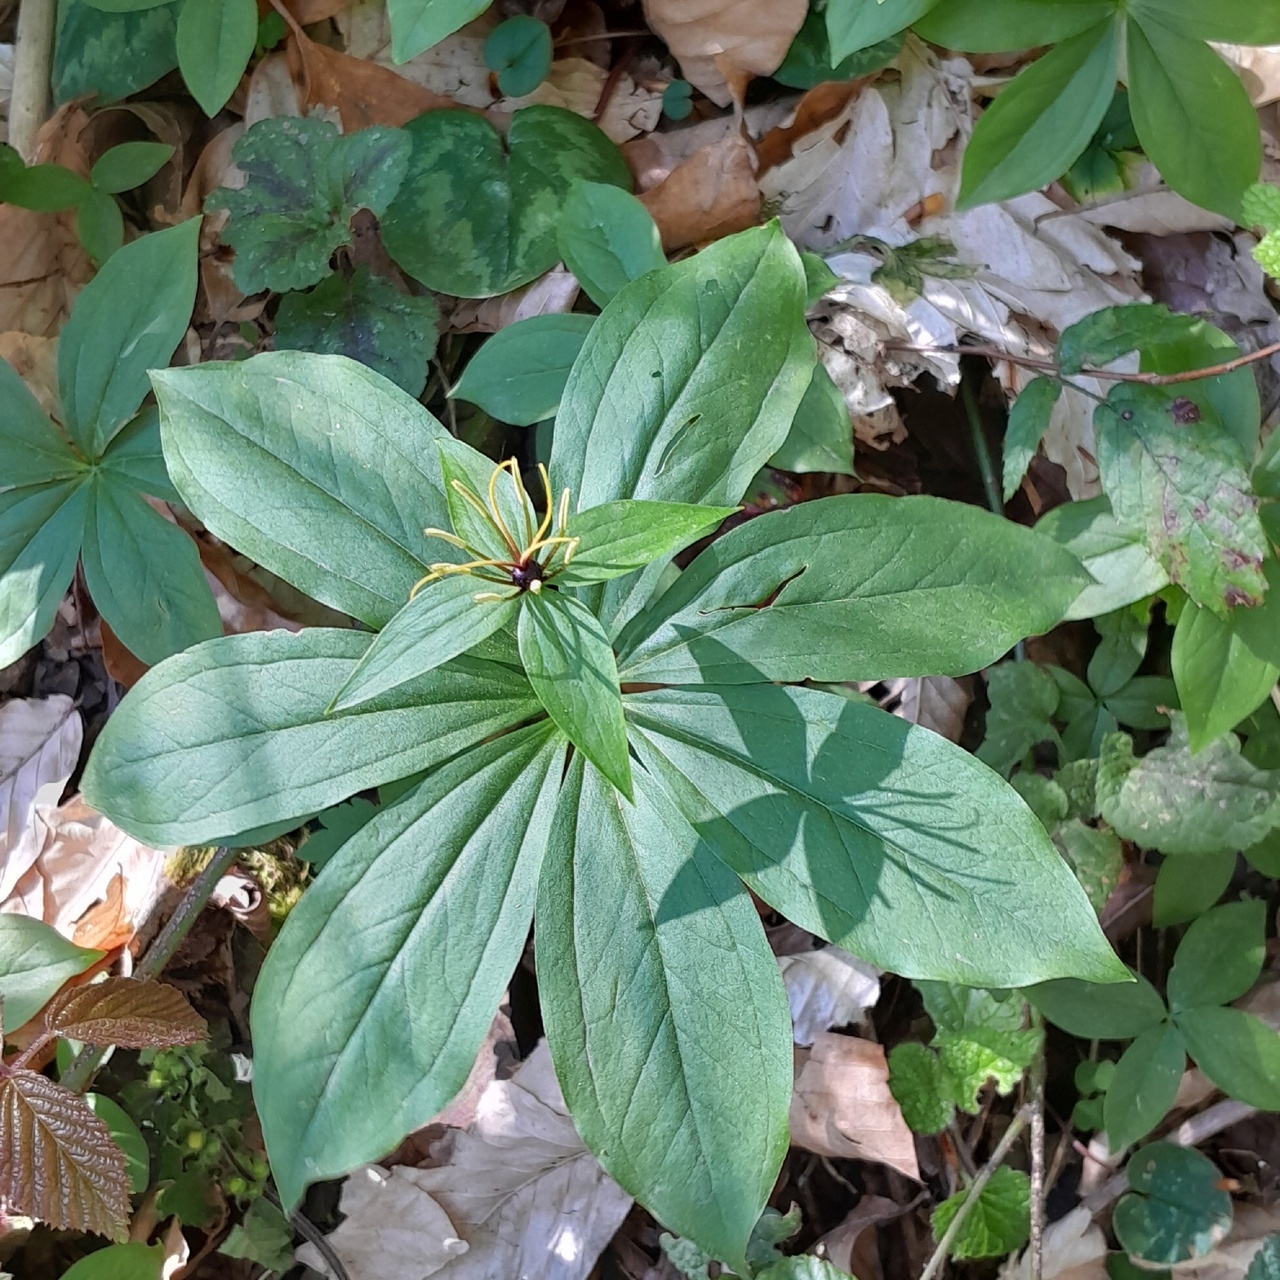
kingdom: Plantae
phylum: Tracheophyta
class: Liliopsida
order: Liliales
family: Melanthiaceae
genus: Paris
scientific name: Paris incompleta
